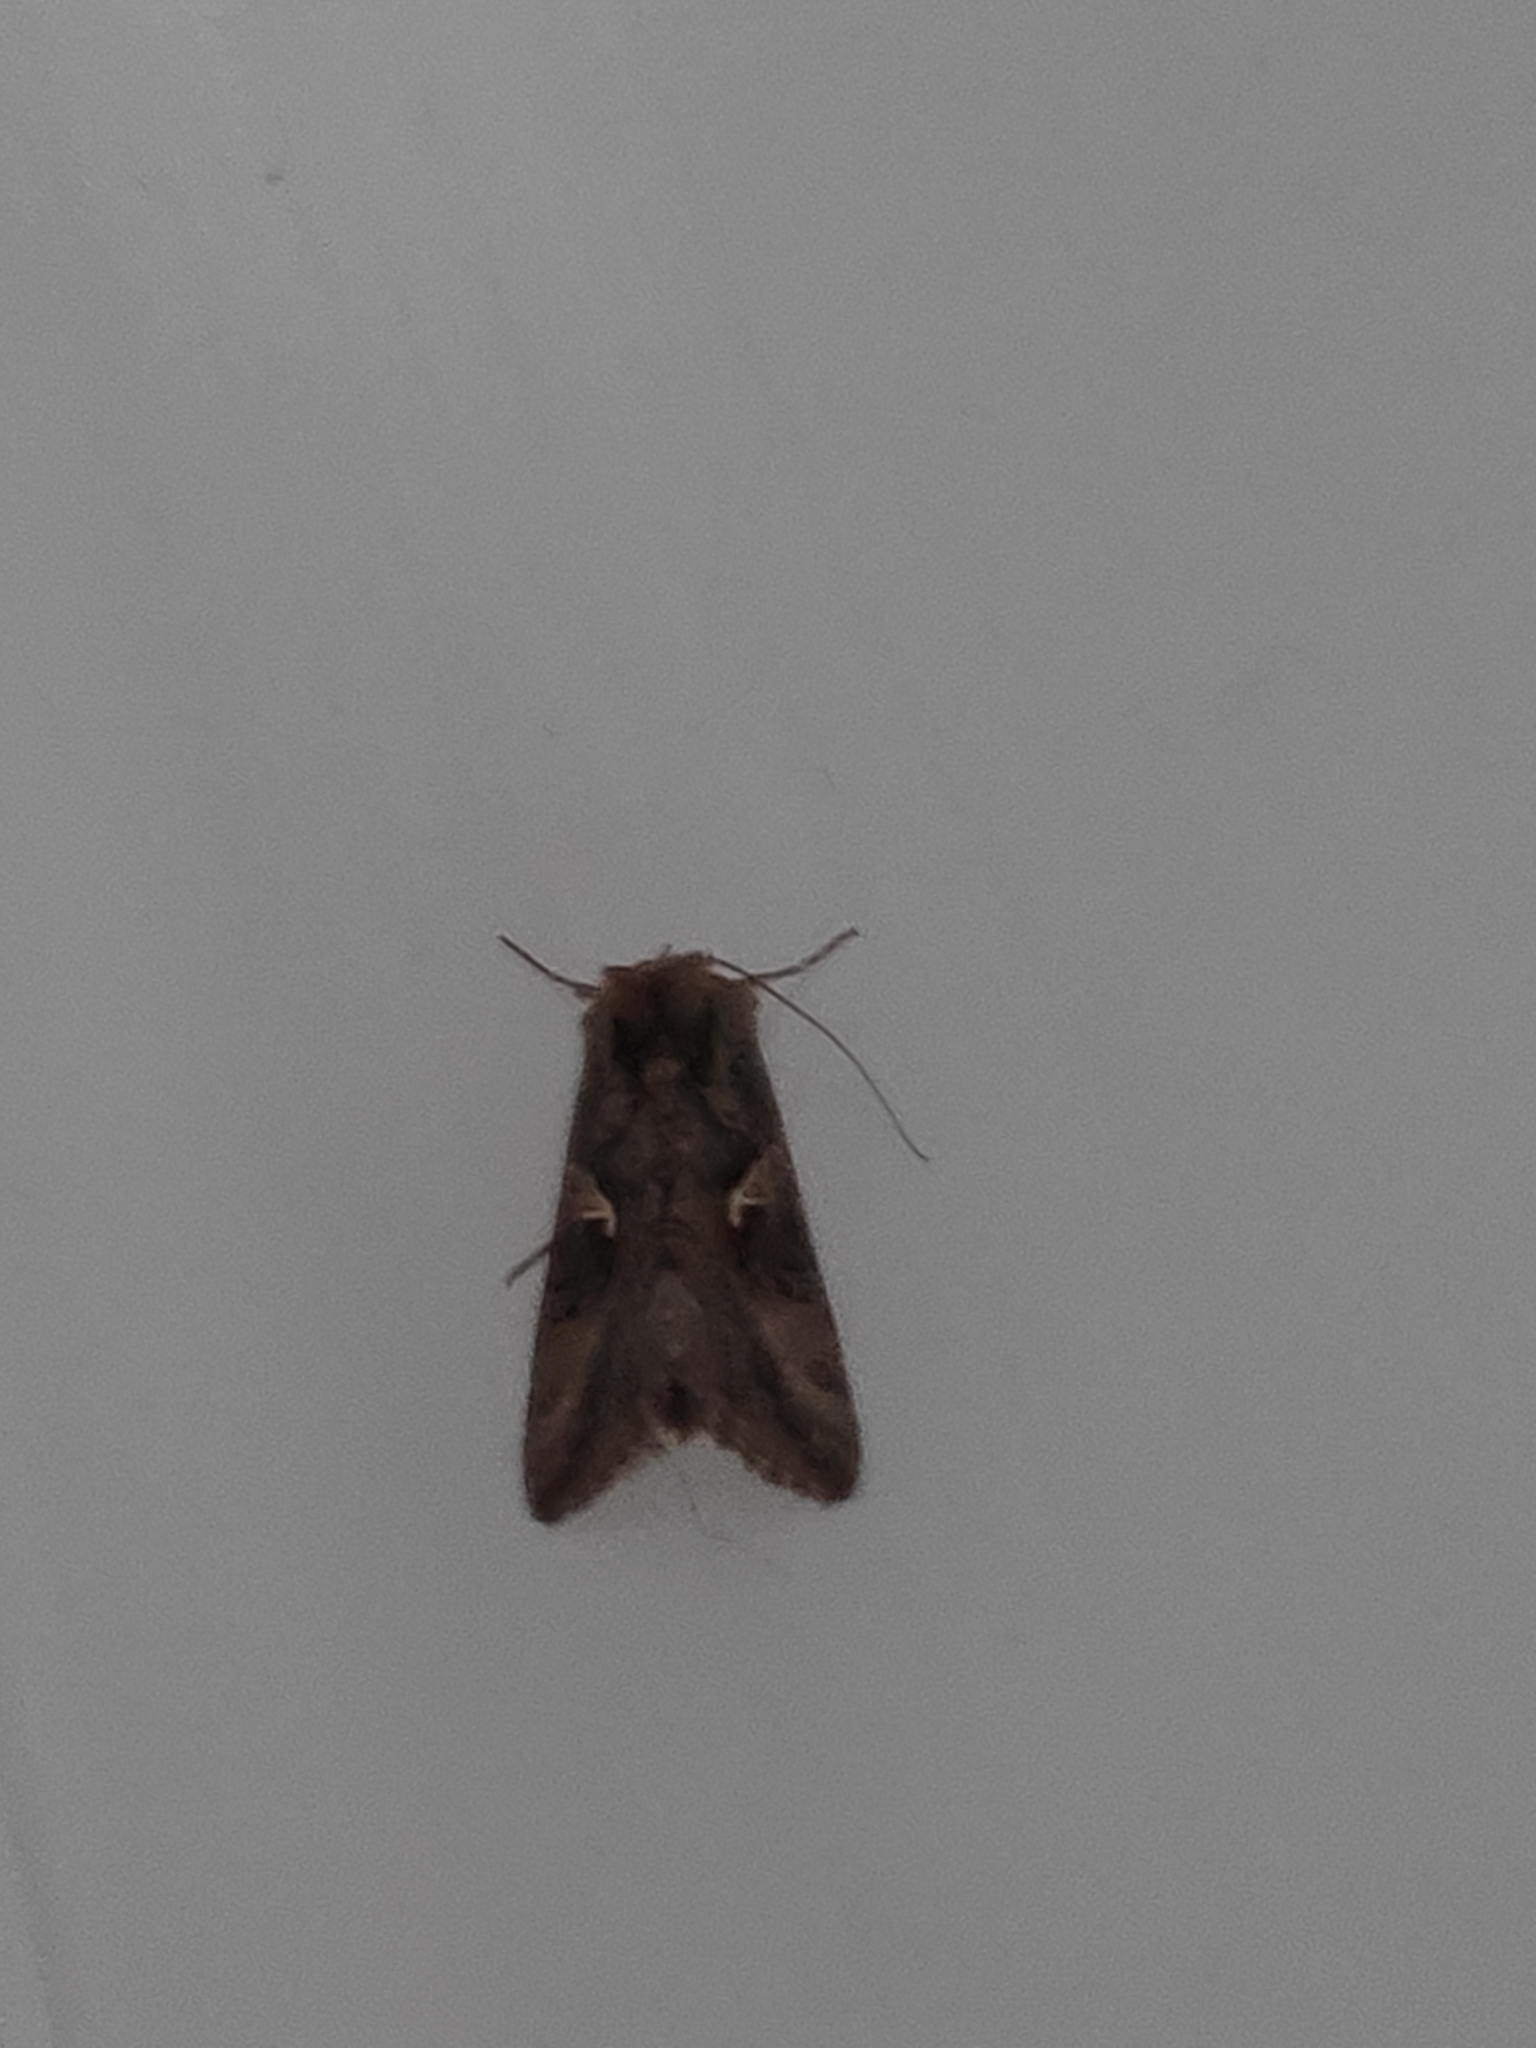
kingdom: Animalia
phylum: Arthropoda
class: Insecta
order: Lepidoptera
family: Noctuidae
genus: Autographa
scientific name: Autographa gamma
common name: Silver y
